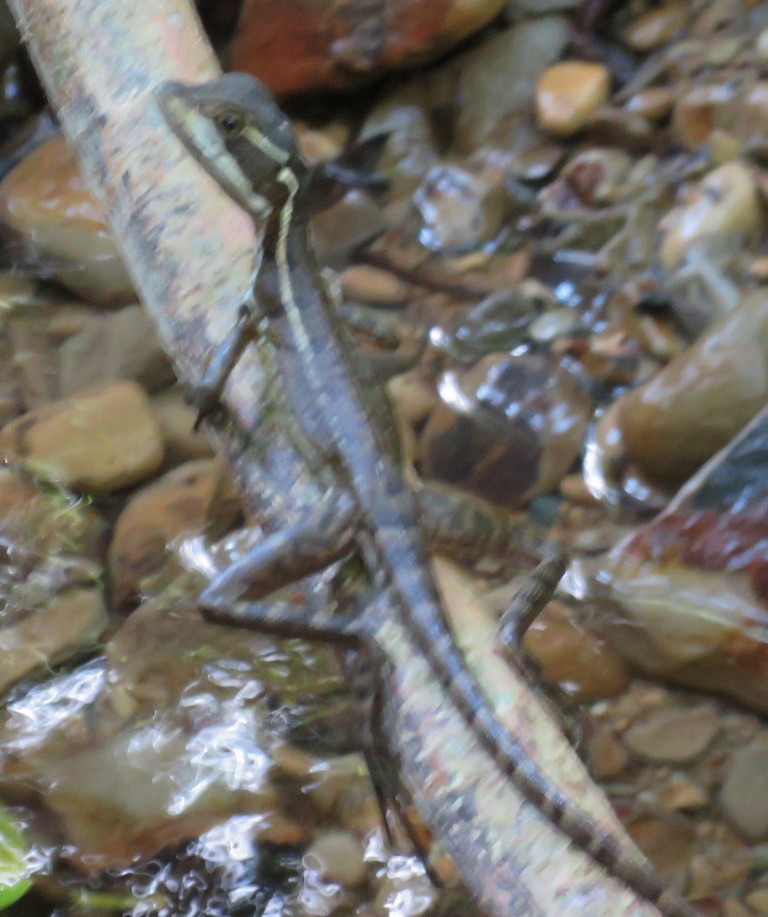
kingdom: Animalia
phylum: Chordata
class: Squamata
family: Corytophanidae
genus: Basiliscus
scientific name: Basiliscus basiliscus
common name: Common basilisk
